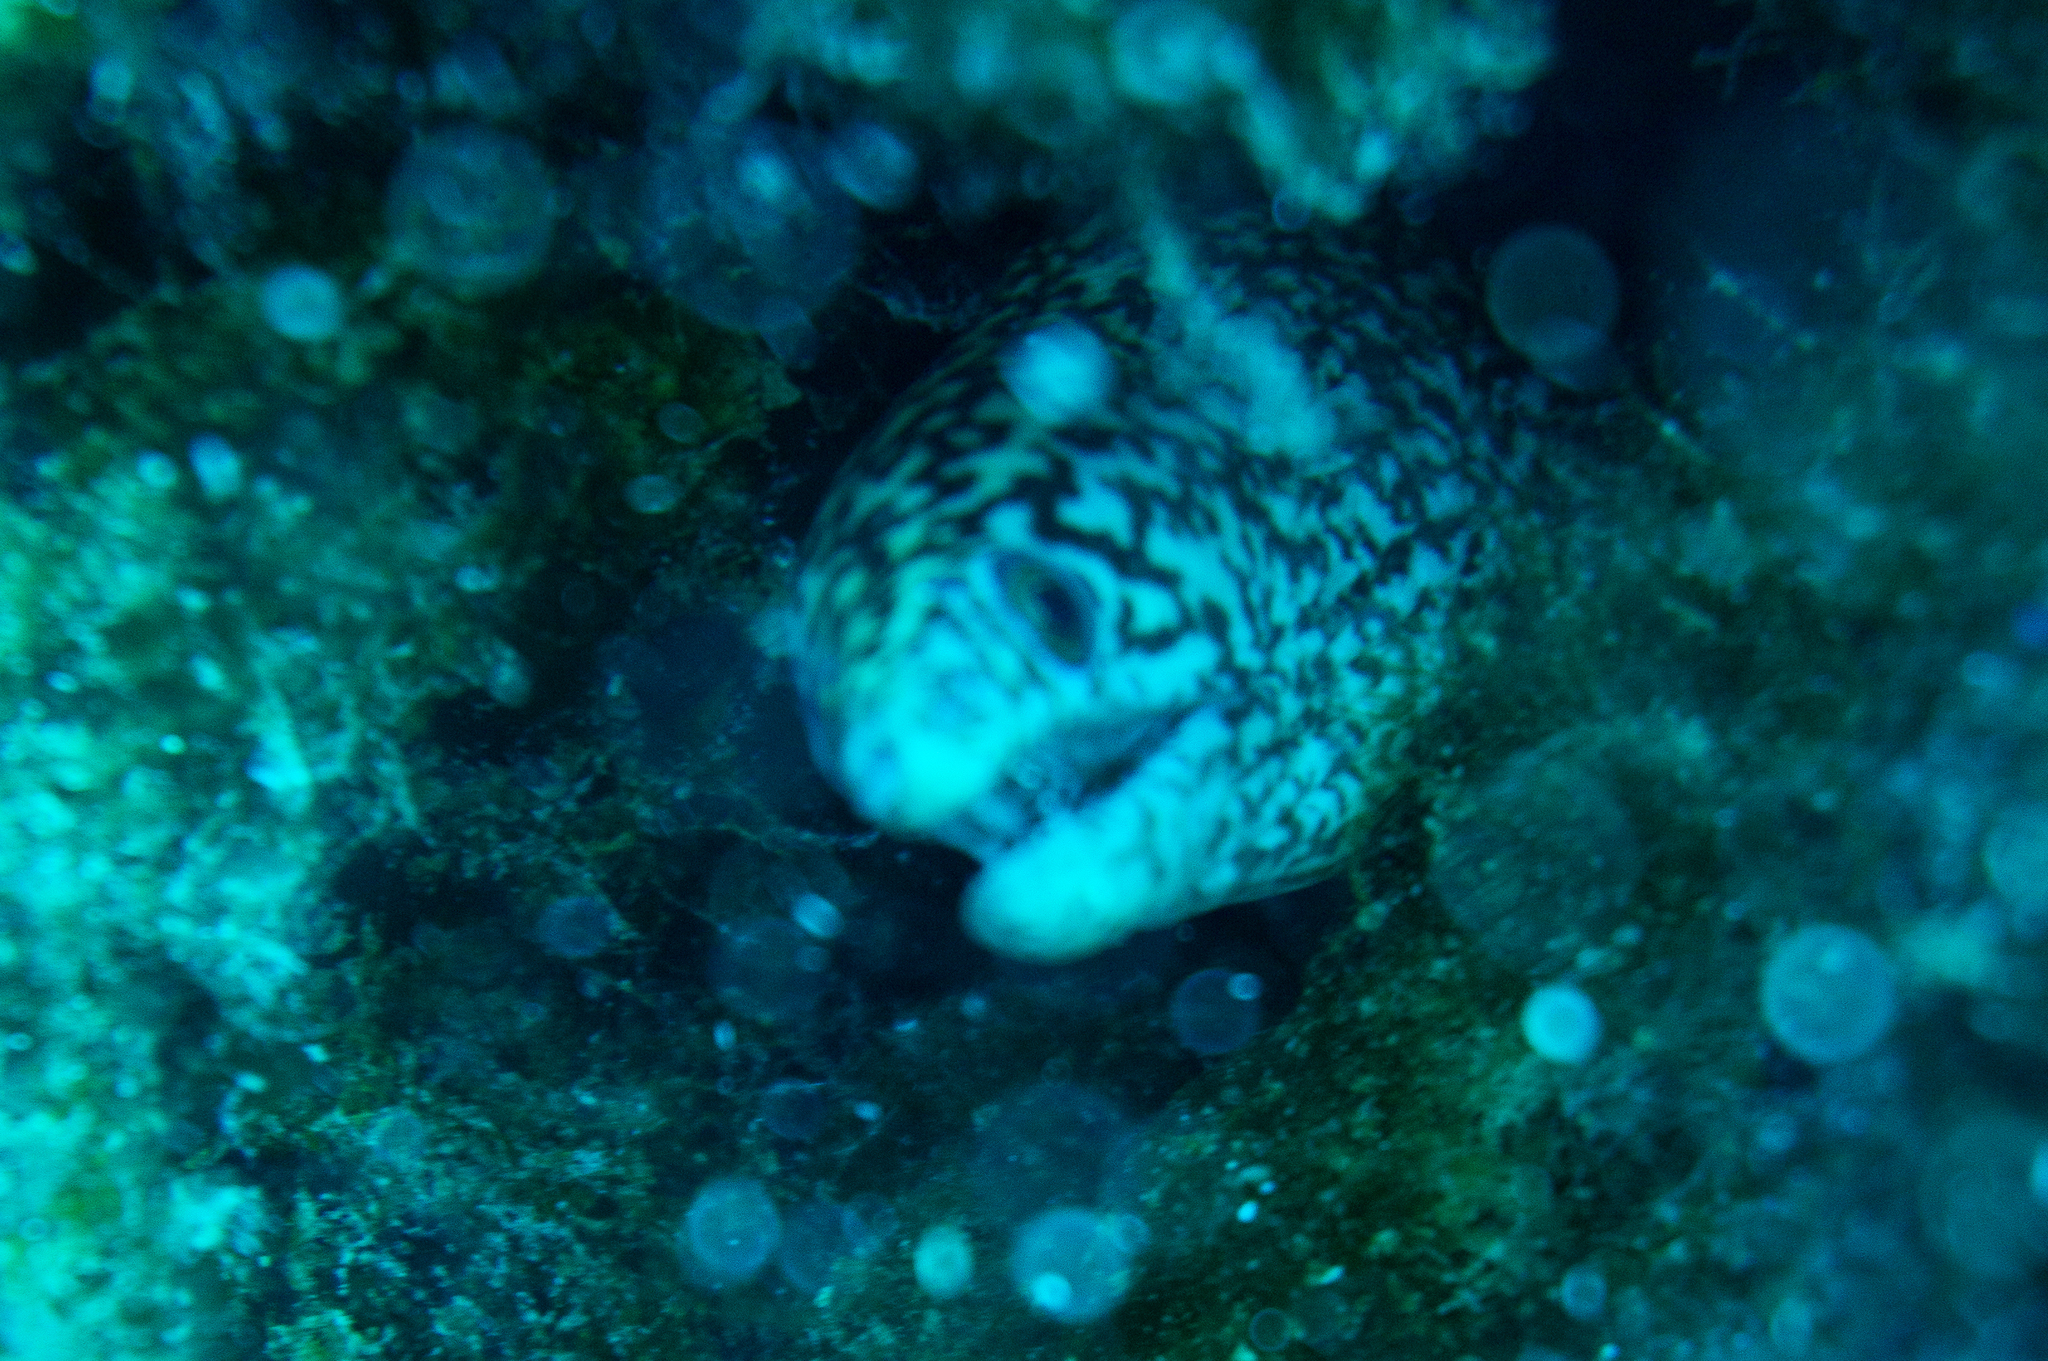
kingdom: Animalia
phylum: Chordata
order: Anguilliformes
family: Muraenidae
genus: Gymnothorax
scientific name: Gymnothorax eurostus
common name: Stout moray
